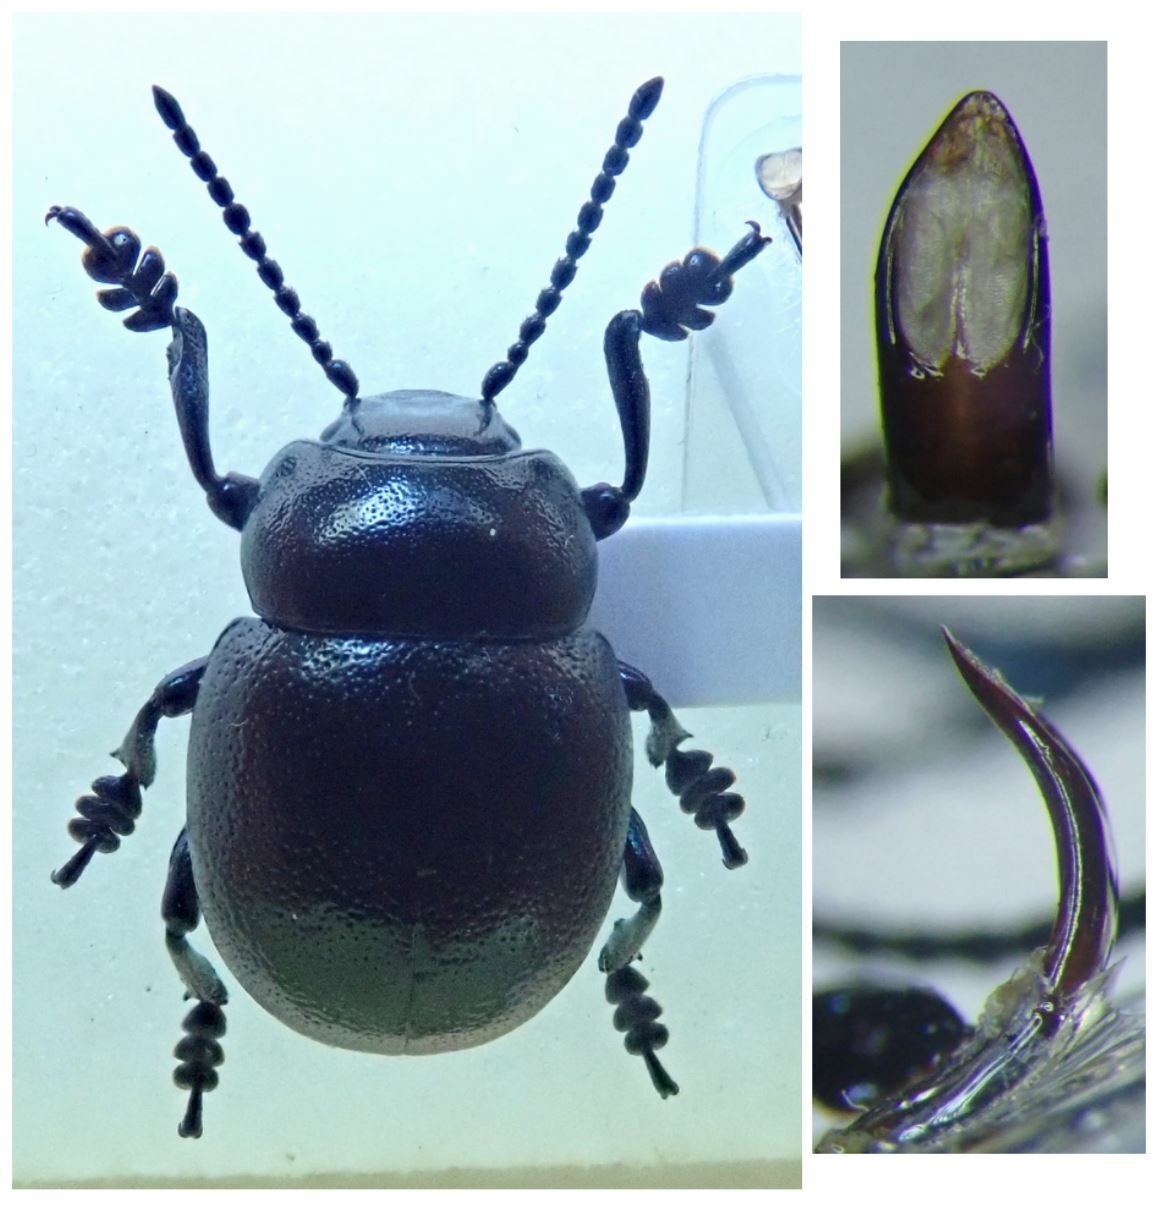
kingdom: Animalia
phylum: Arthropoda
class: Insecta
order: Coleoptera
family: Chrysomelidae
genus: Timarcha
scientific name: Timarcha goettingensis
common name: Small bloody-nosed beetle
